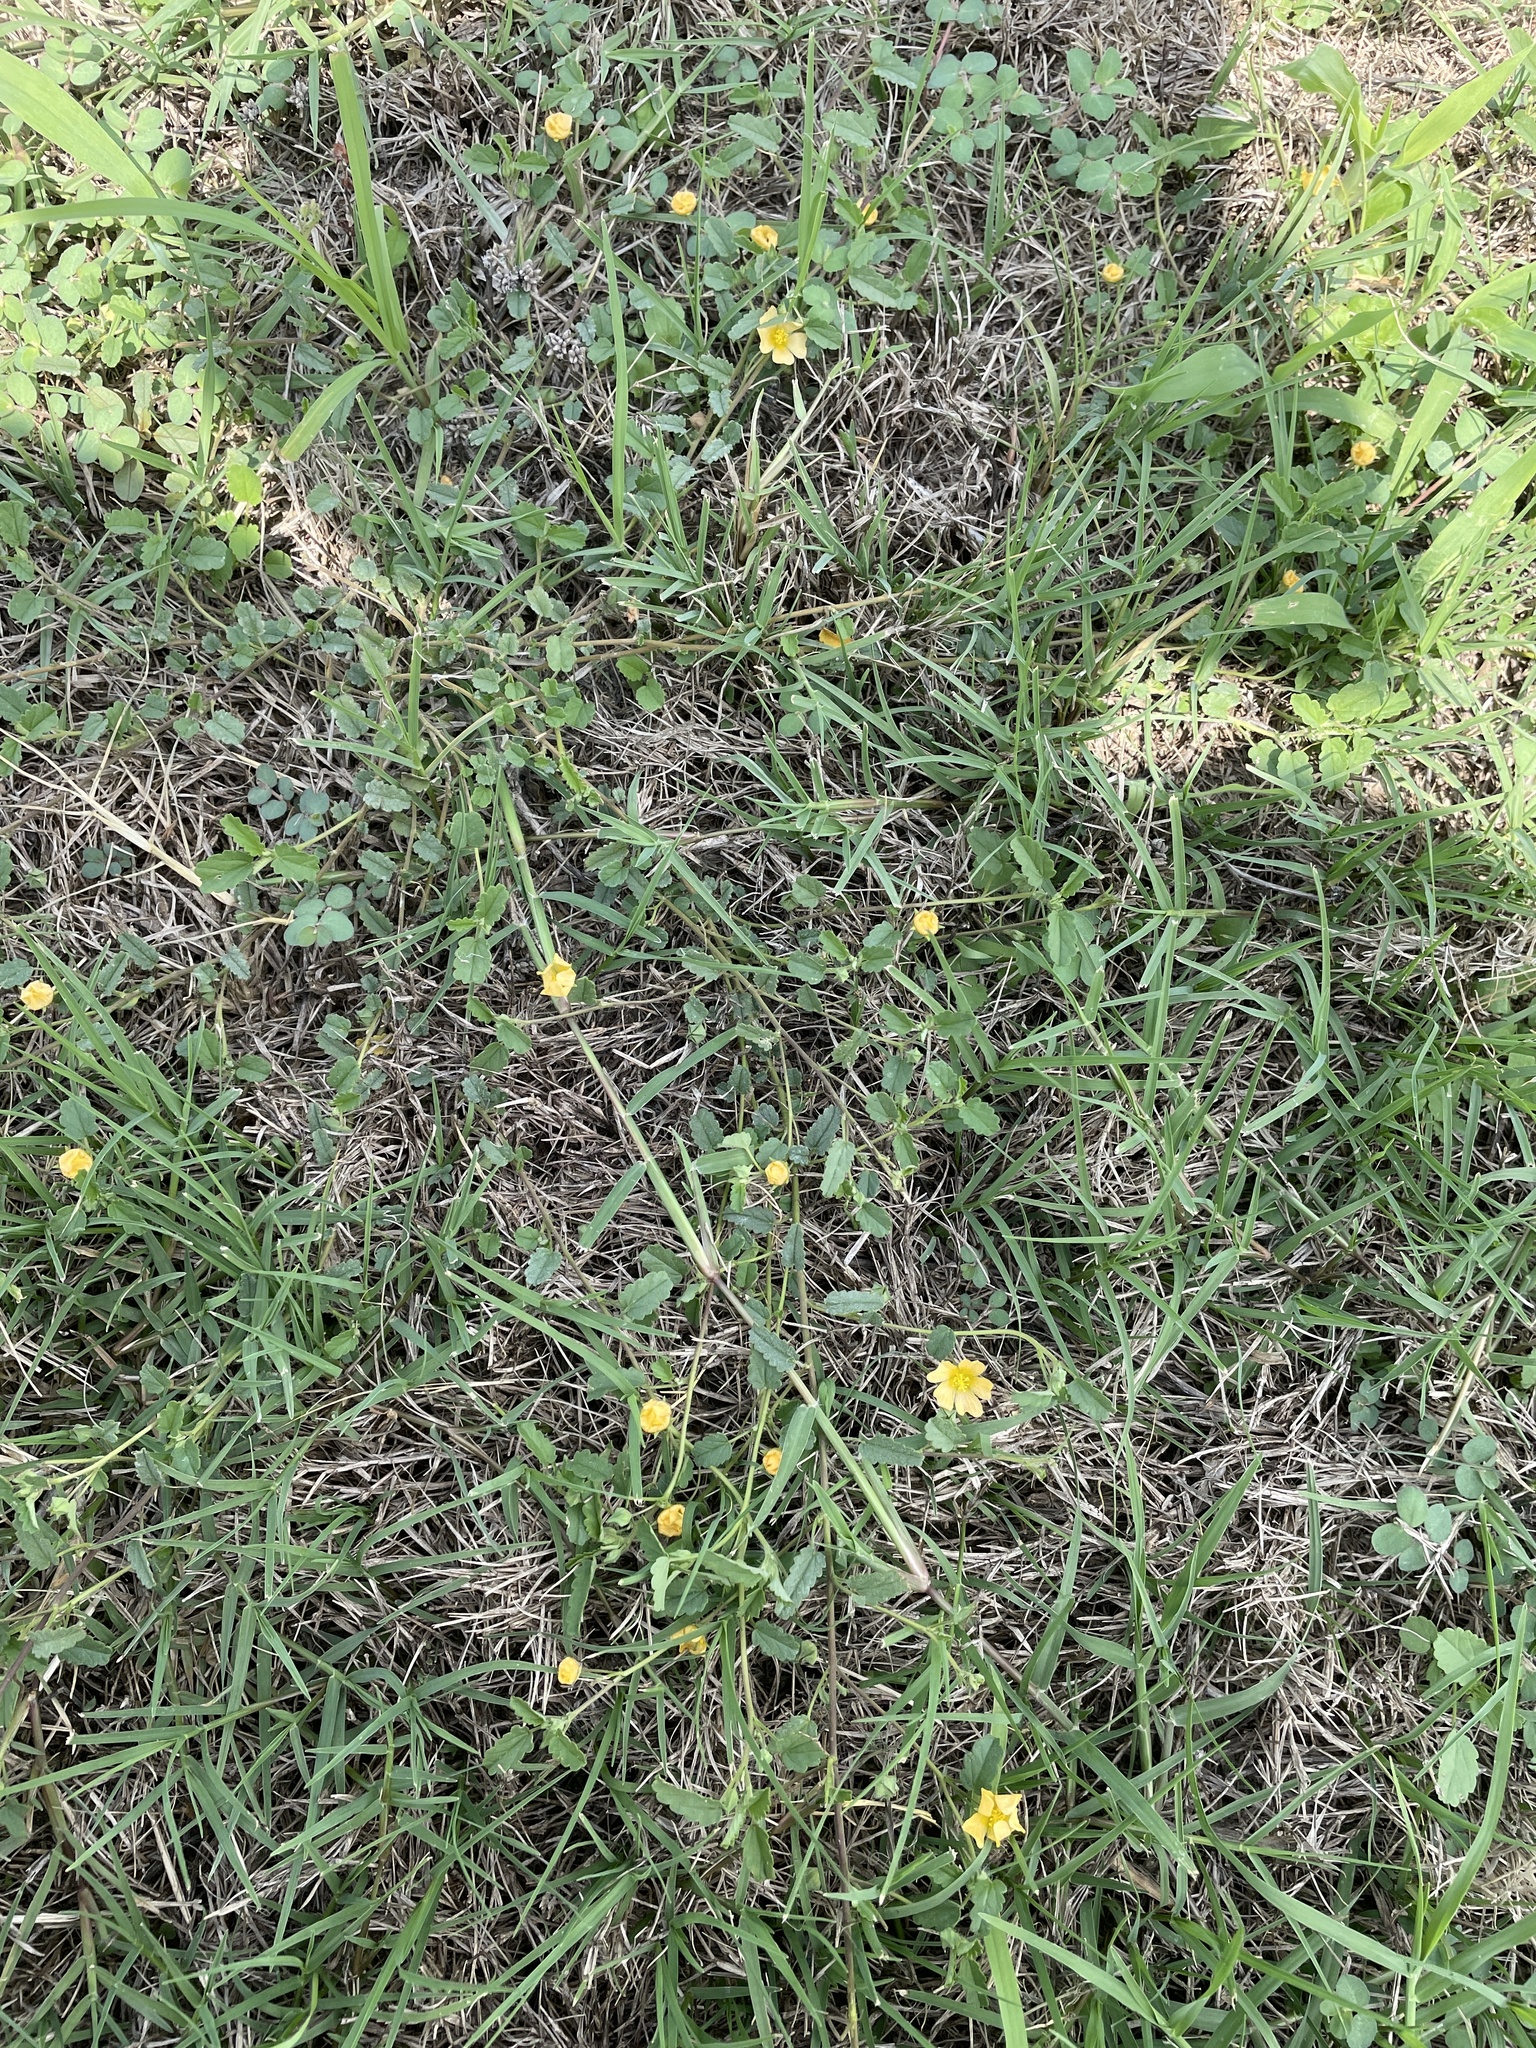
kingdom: Plantae
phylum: Tracheophyta
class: Magnoliopsida
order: Malvales
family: Malvaceae
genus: Sida
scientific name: Sida abutilifolia
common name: Spreading fanpetals
